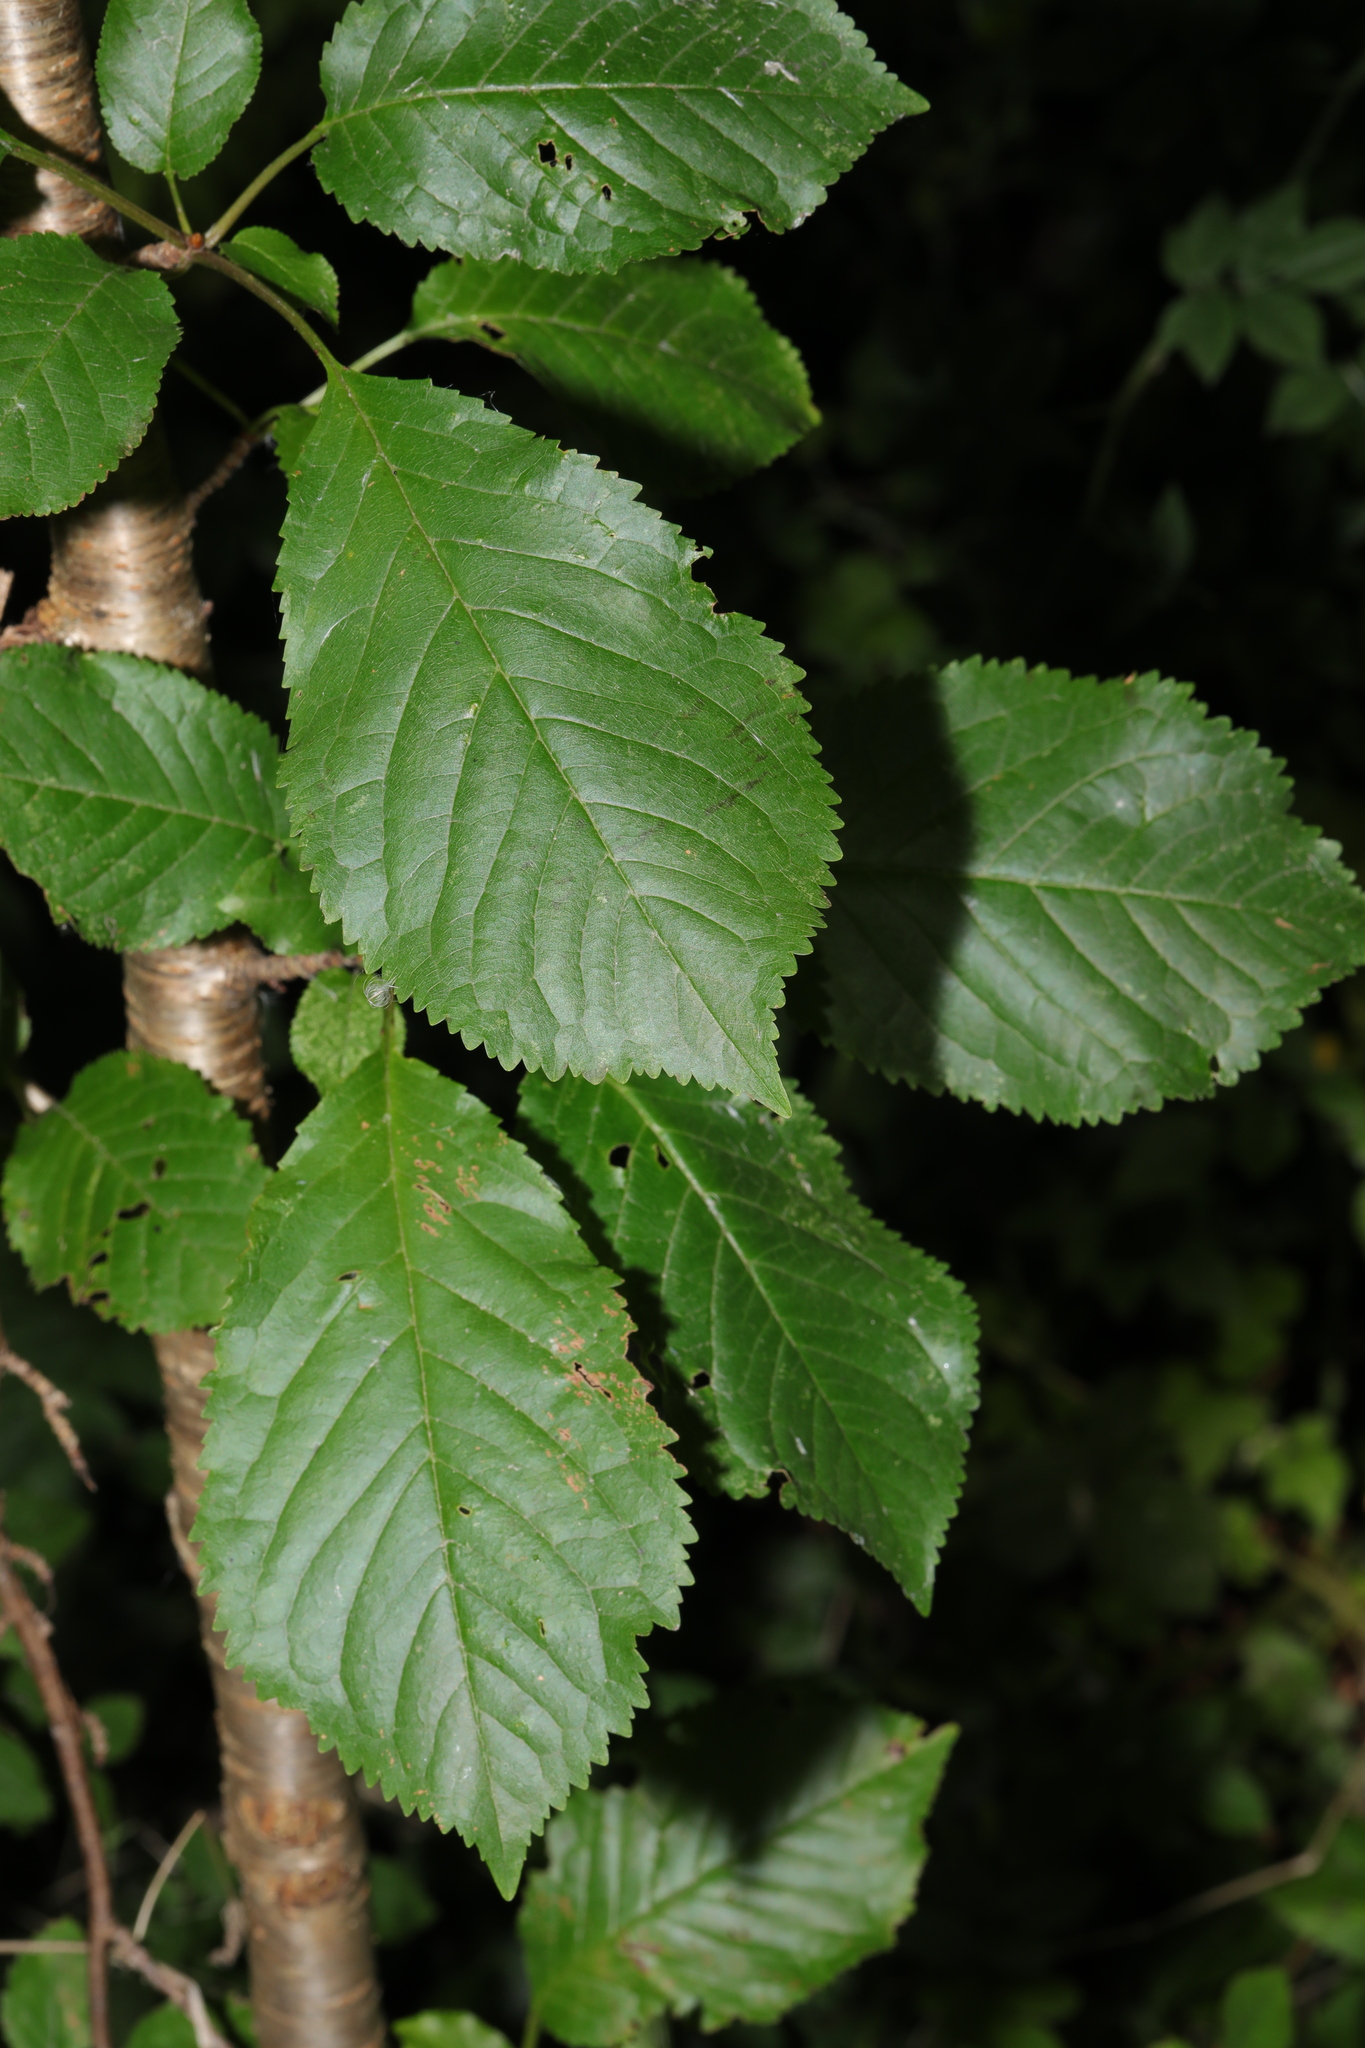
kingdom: Plantae
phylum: Tracheophyta
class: Magnoliopsida
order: Rosales
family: Rosaceae
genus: Prunus
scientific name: Prunus avium
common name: Sweet cherry
